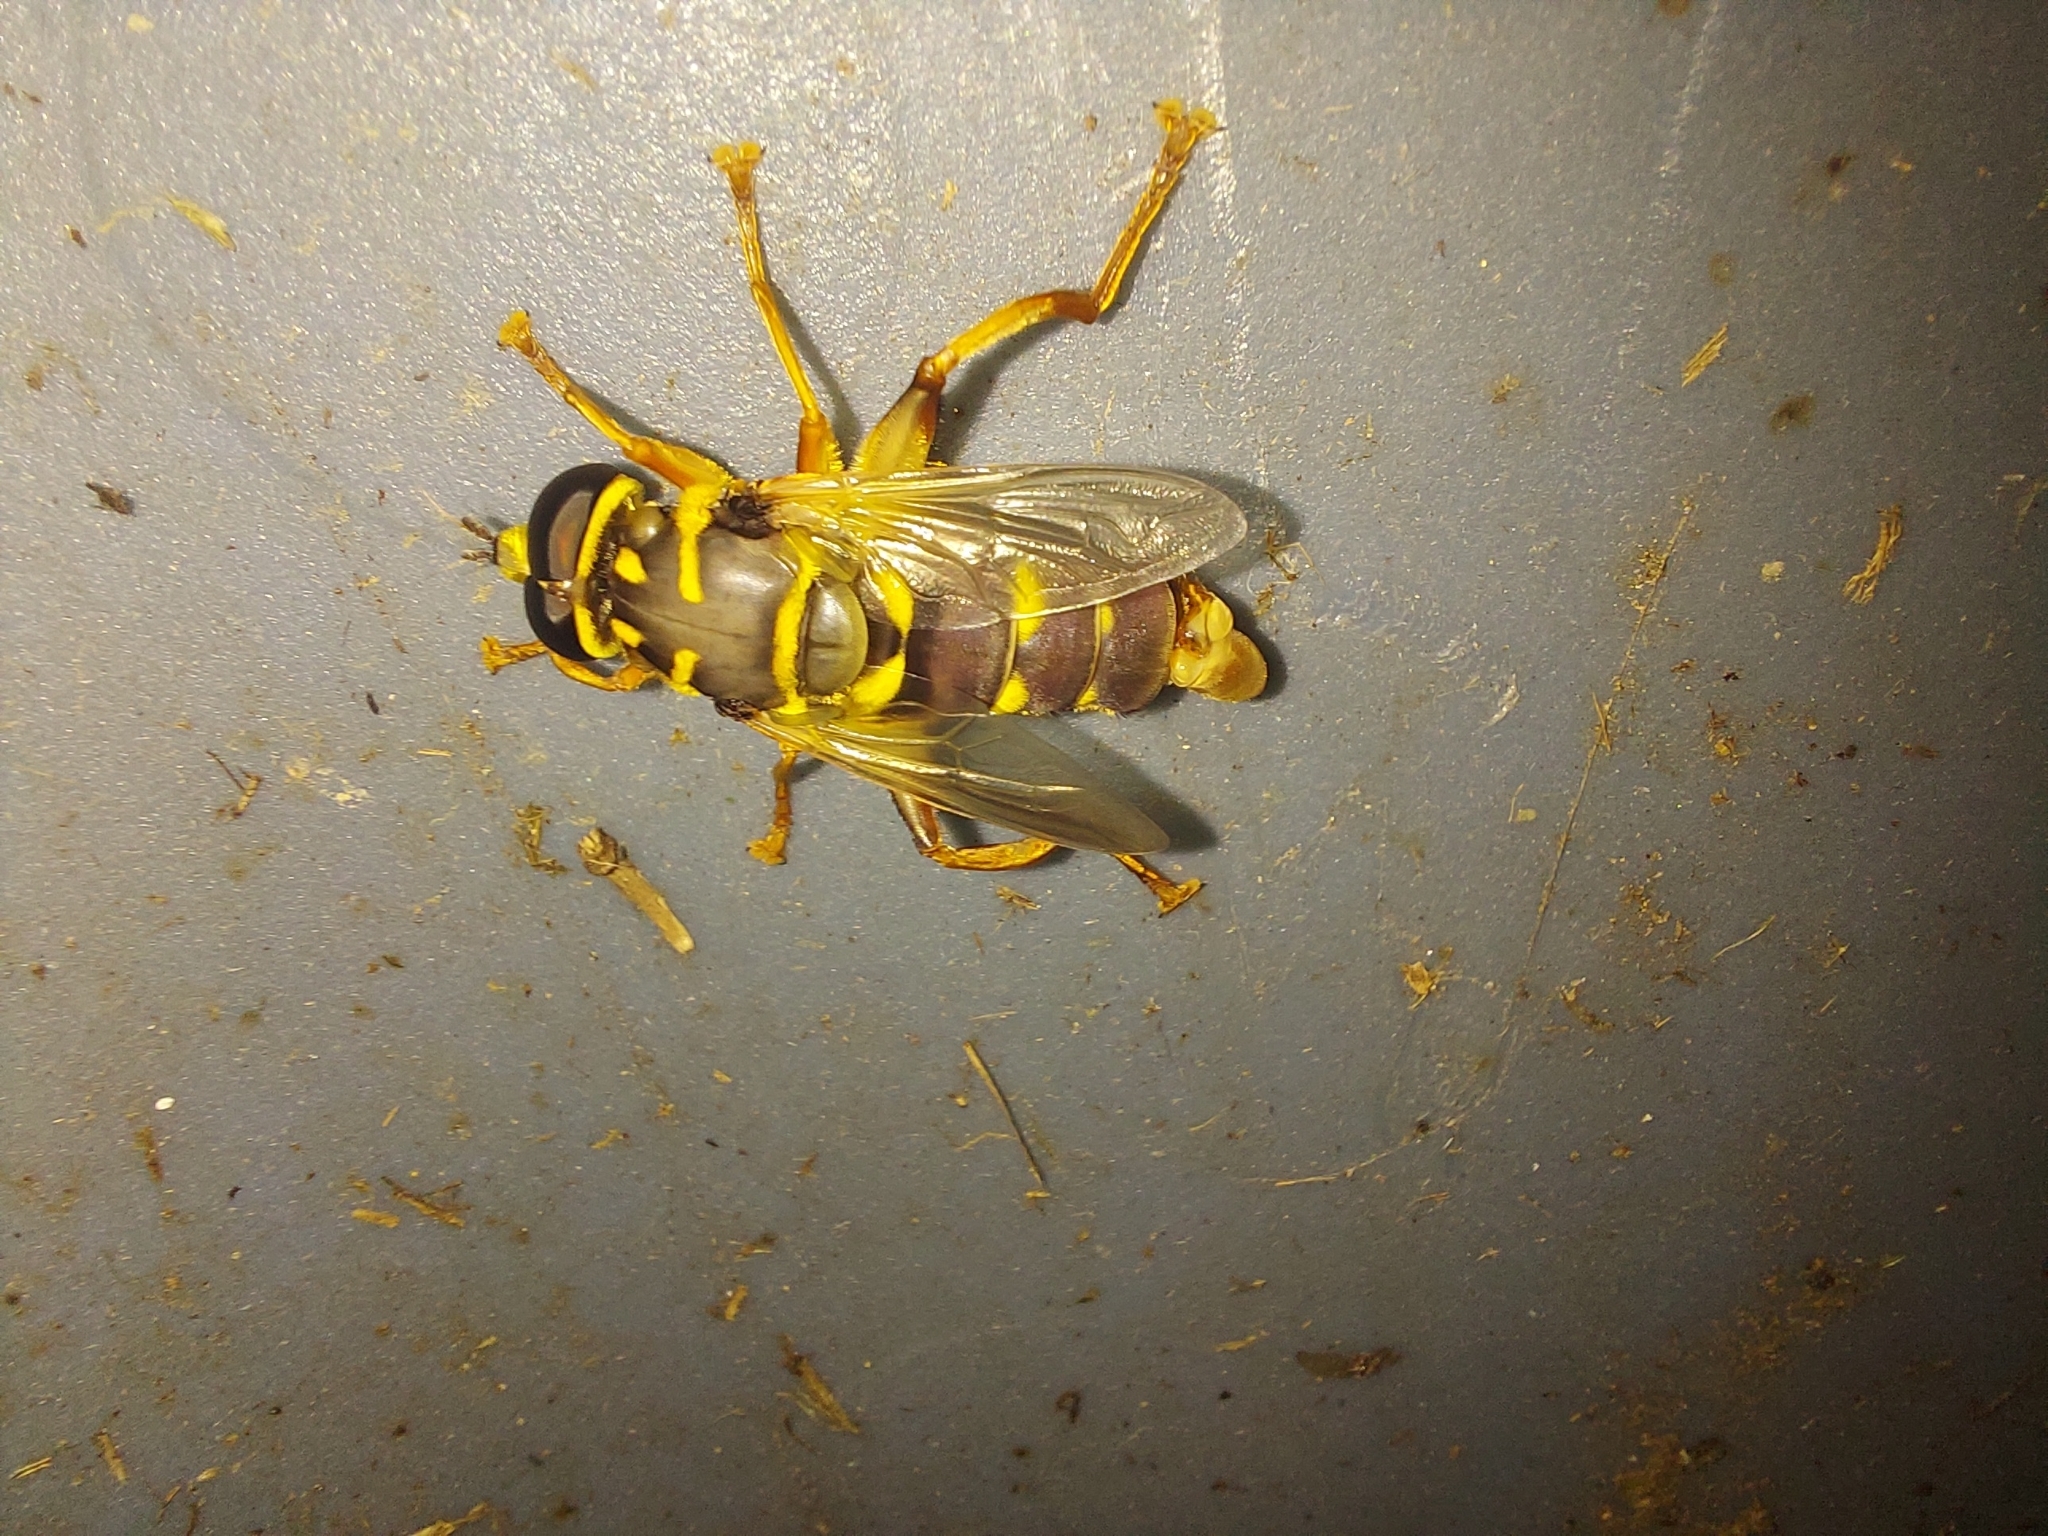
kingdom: Animalia
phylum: Arthropoda
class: Insecta
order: Diptera
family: Syrphidae
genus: Meromacrus
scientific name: Meromacrus acutus
